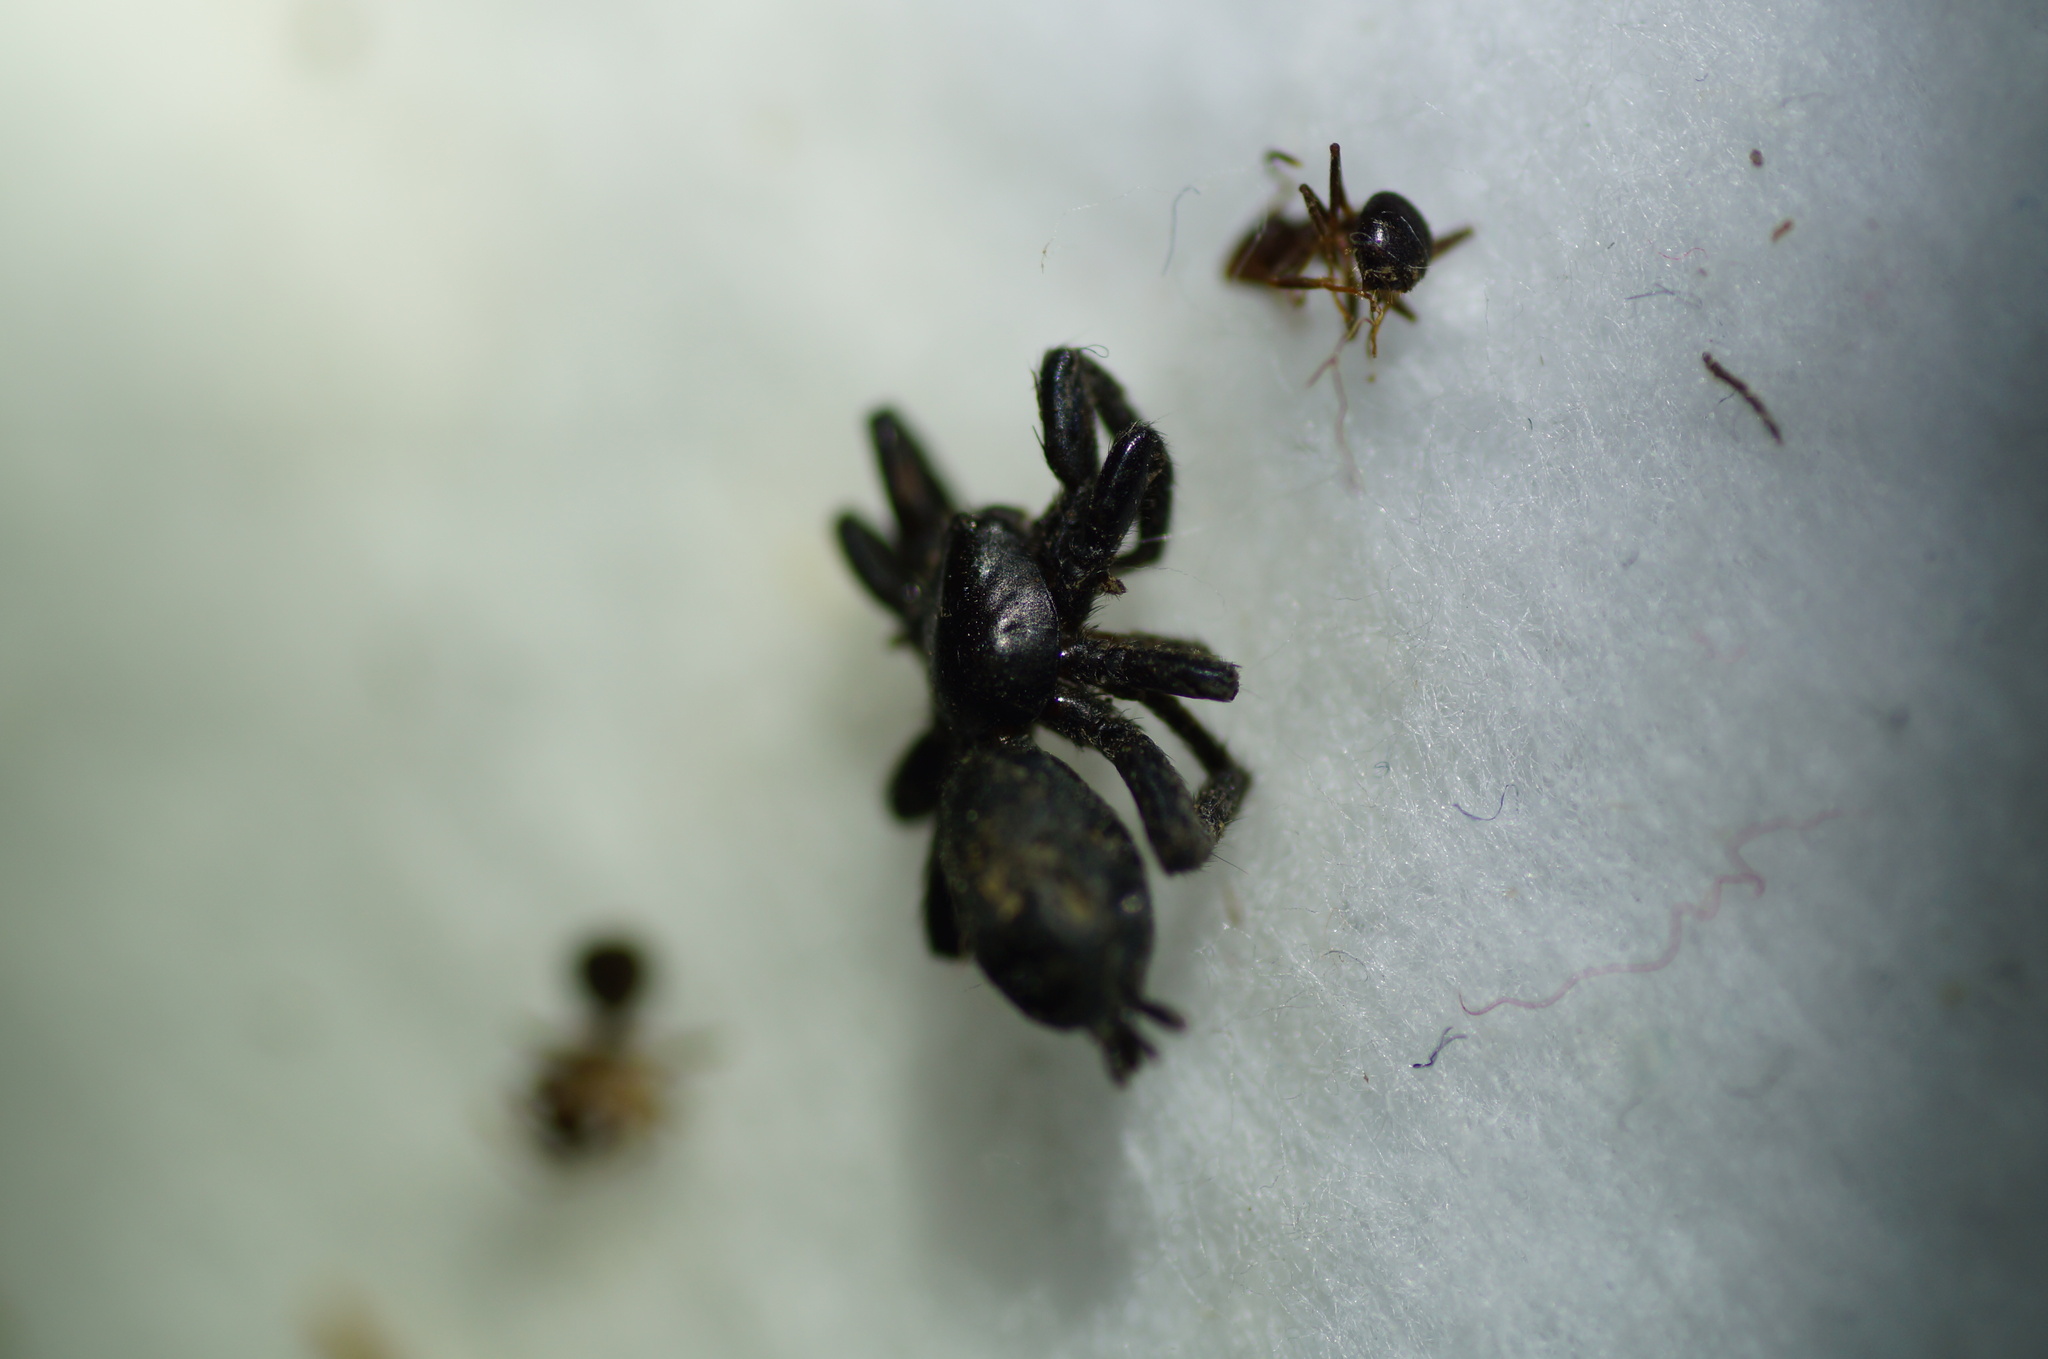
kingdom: Animalia
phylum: Arthropoda
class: Arachnida
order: Araneae
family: Gnaphosidae
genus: Zelotes
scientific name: Zelotes latreillei
